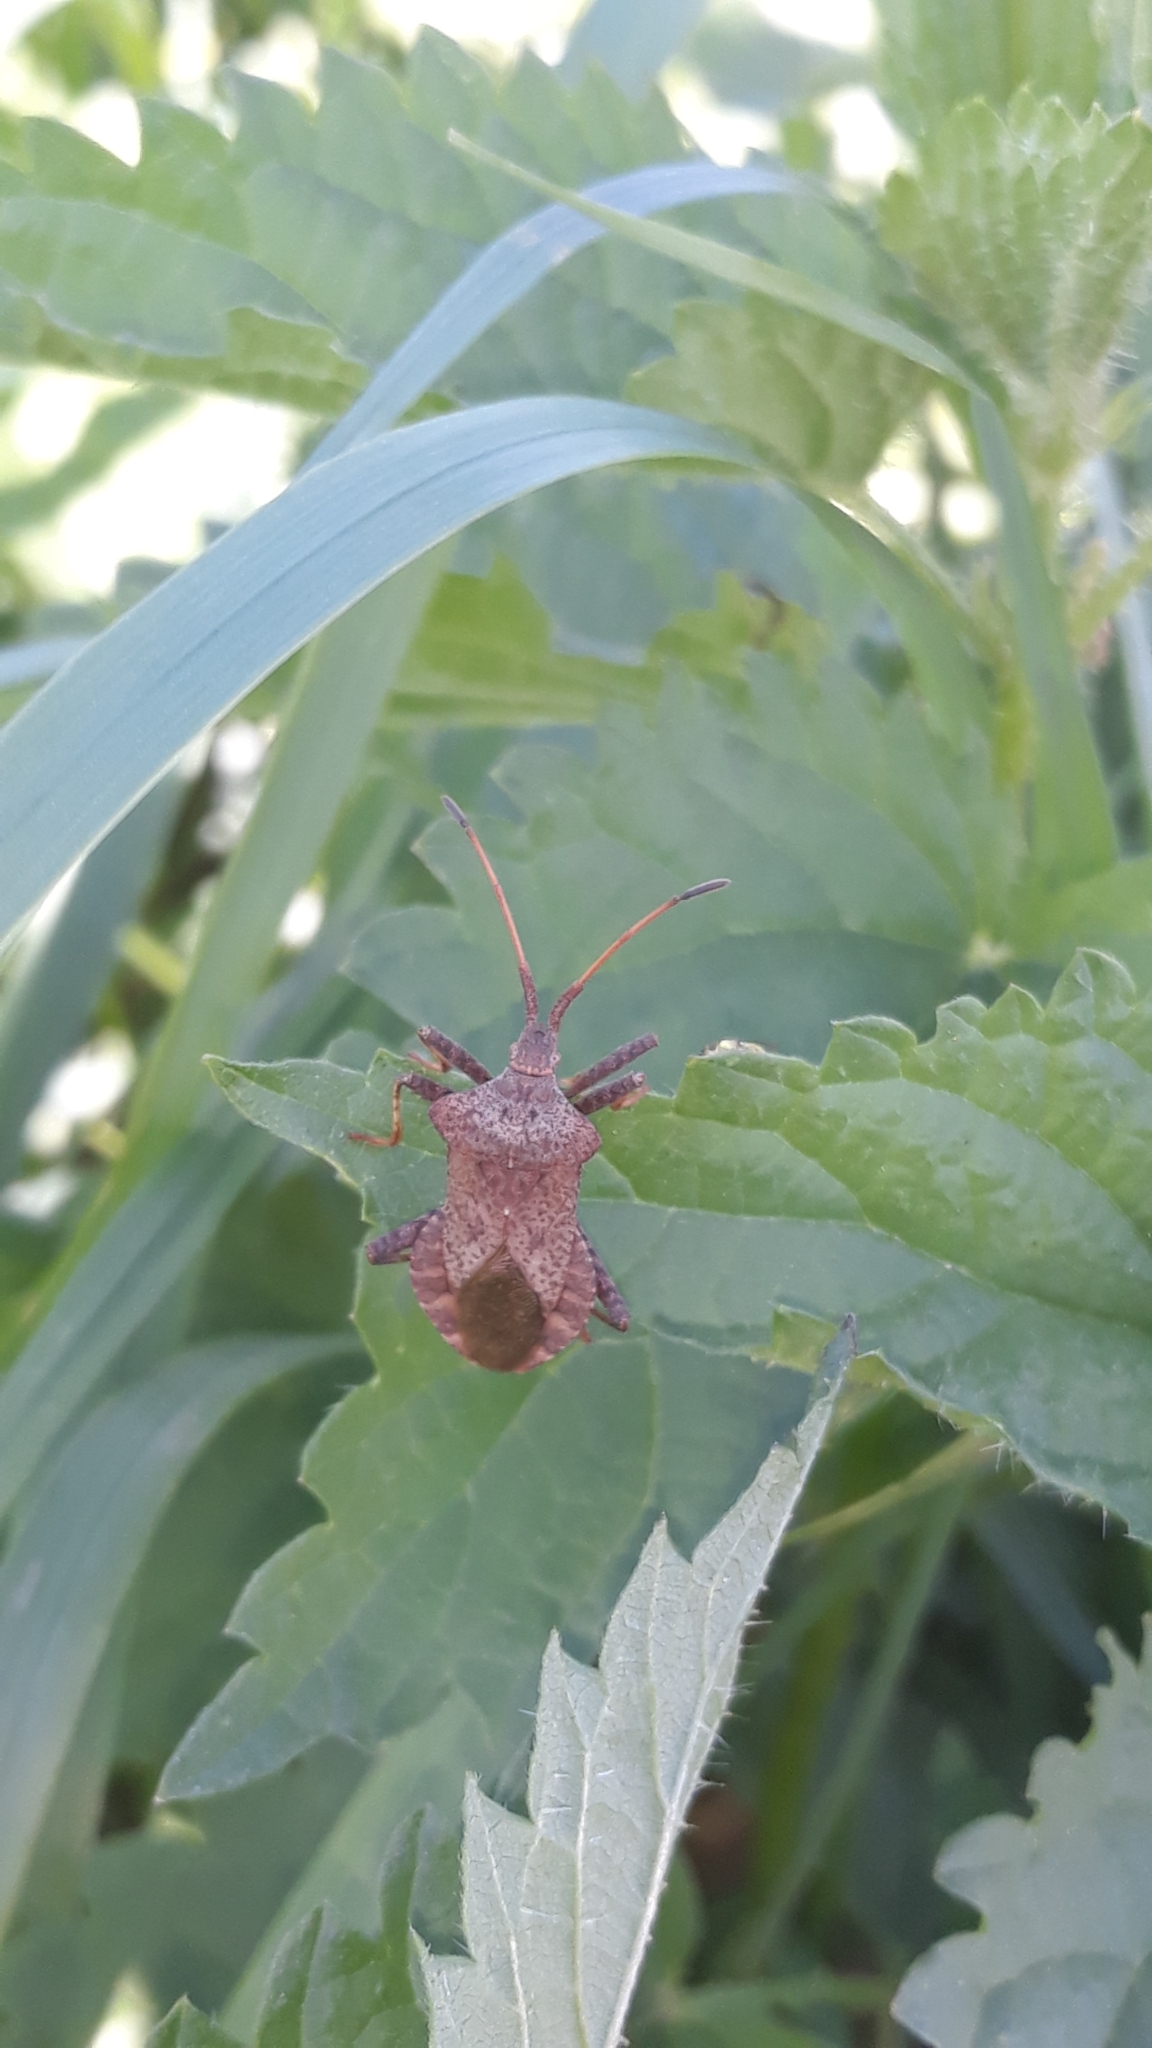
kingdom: Animalia
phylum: Arthropoda
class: Insecta
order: Hemiptera
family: Coreidae
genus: Coreus
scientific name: Coreus marginatus
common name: Dock bug
